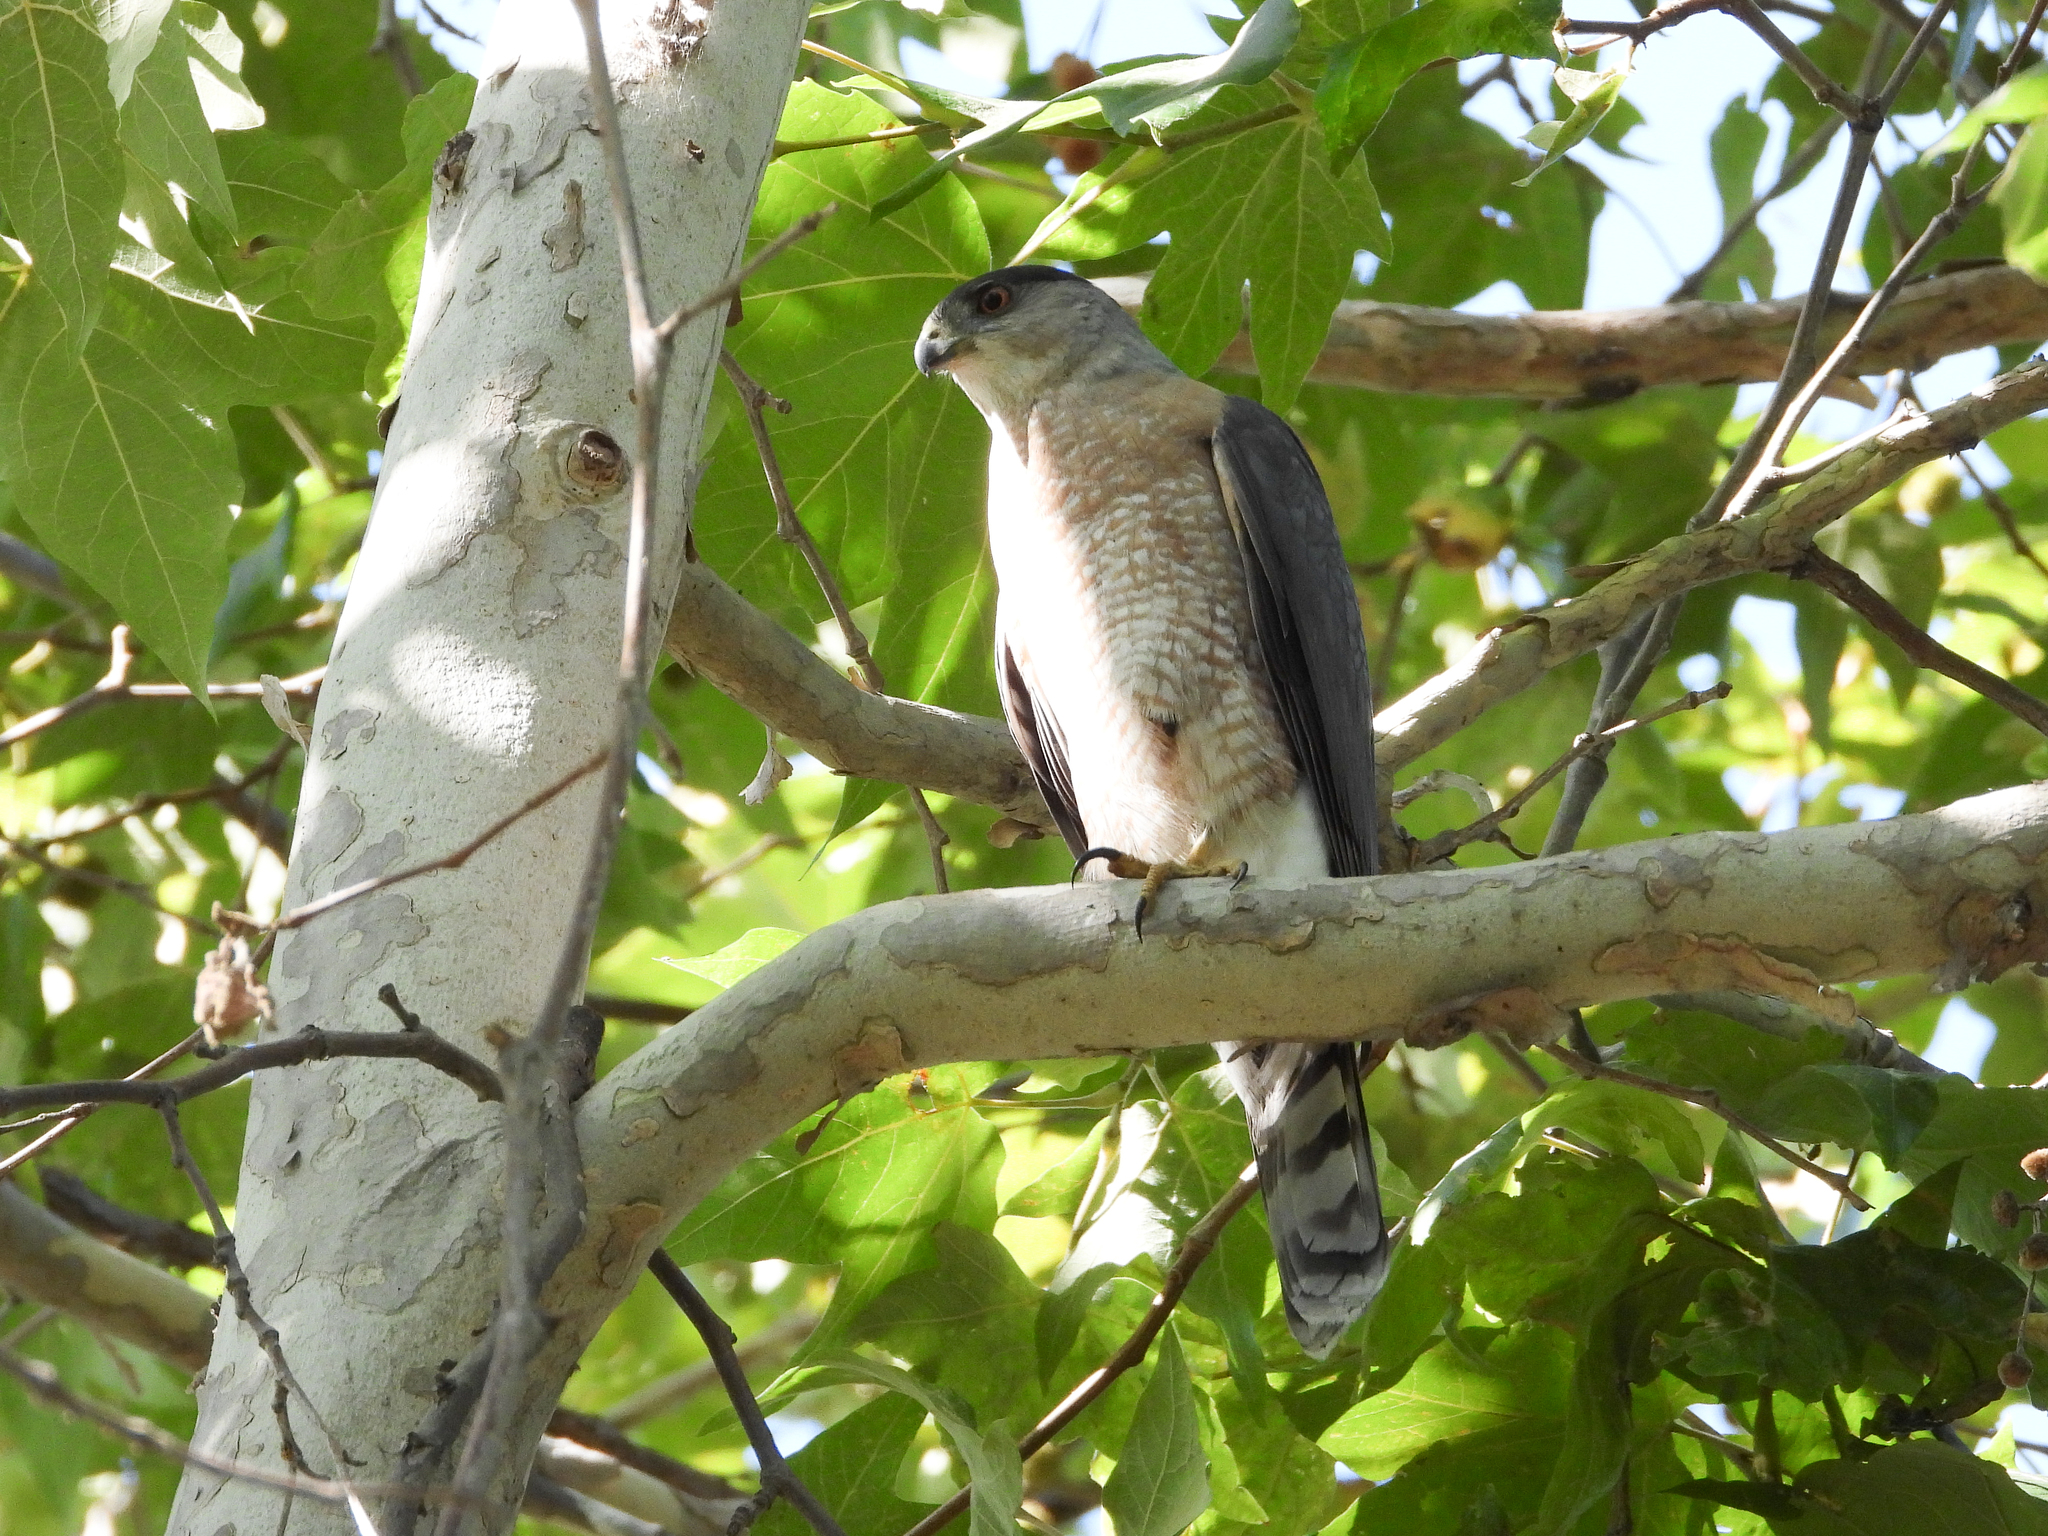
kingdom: Animalia
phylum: Chordata
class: Aves
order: Accipitriformes
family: Accipitridae
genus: Accipiter
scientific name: Accipiter cooperii
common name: Cooper's hawk
